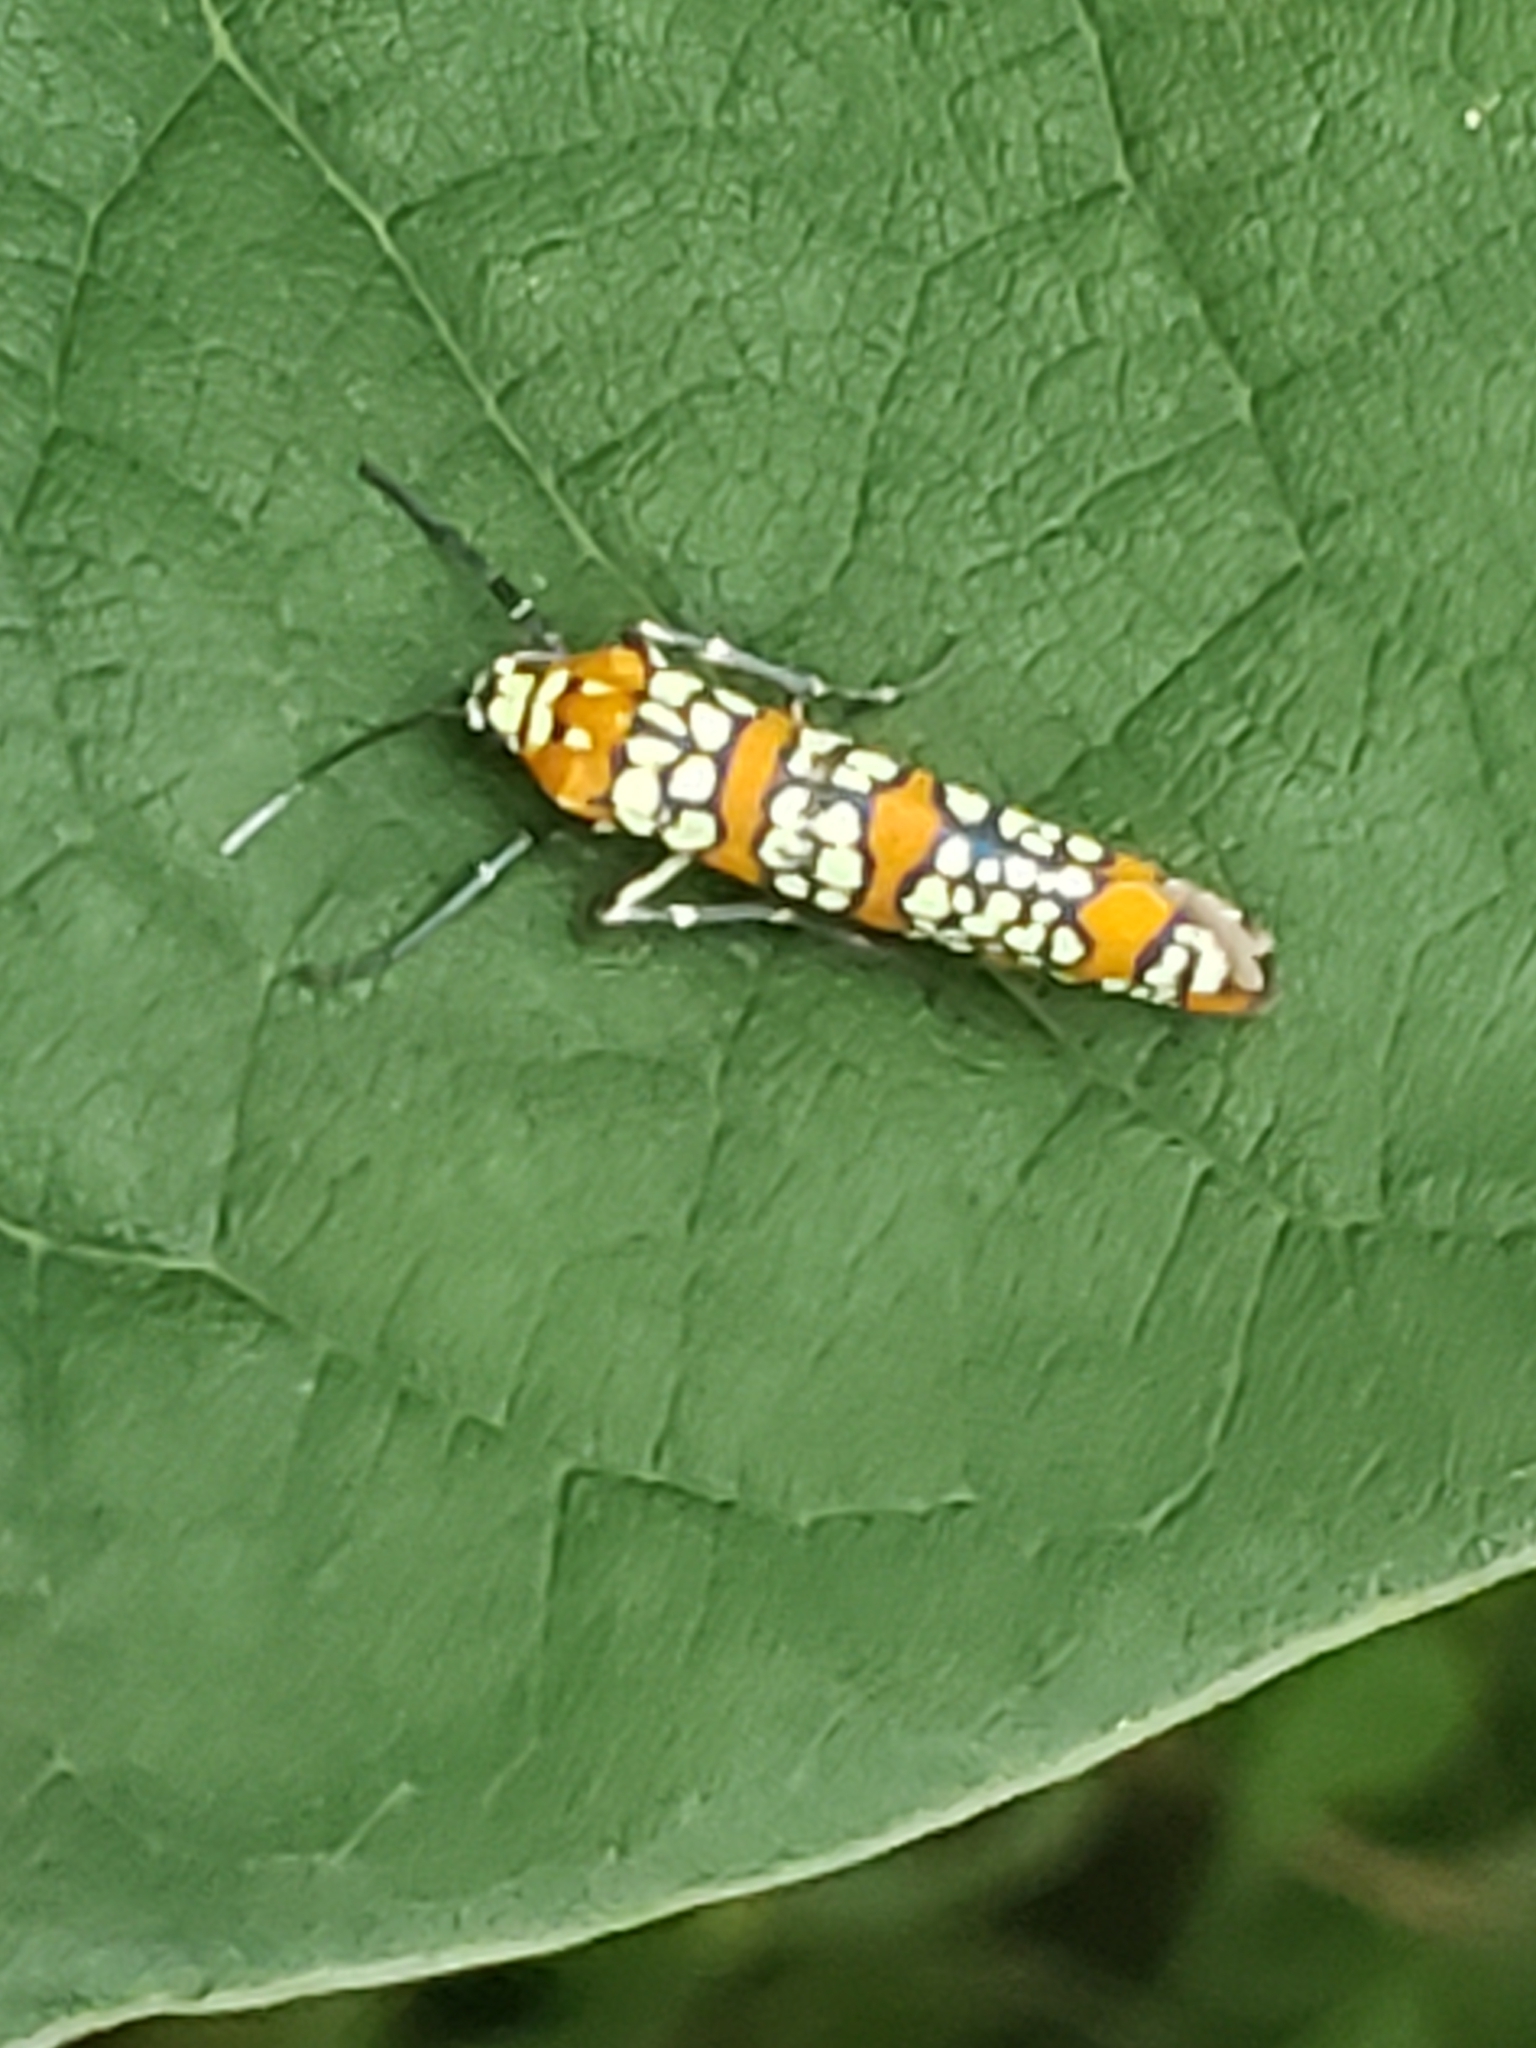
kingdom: Animalia
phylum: Arthropoda
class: Insecta
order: Lepidoptera
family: Attevidae
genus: Atteva
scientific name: Atteva punctella
